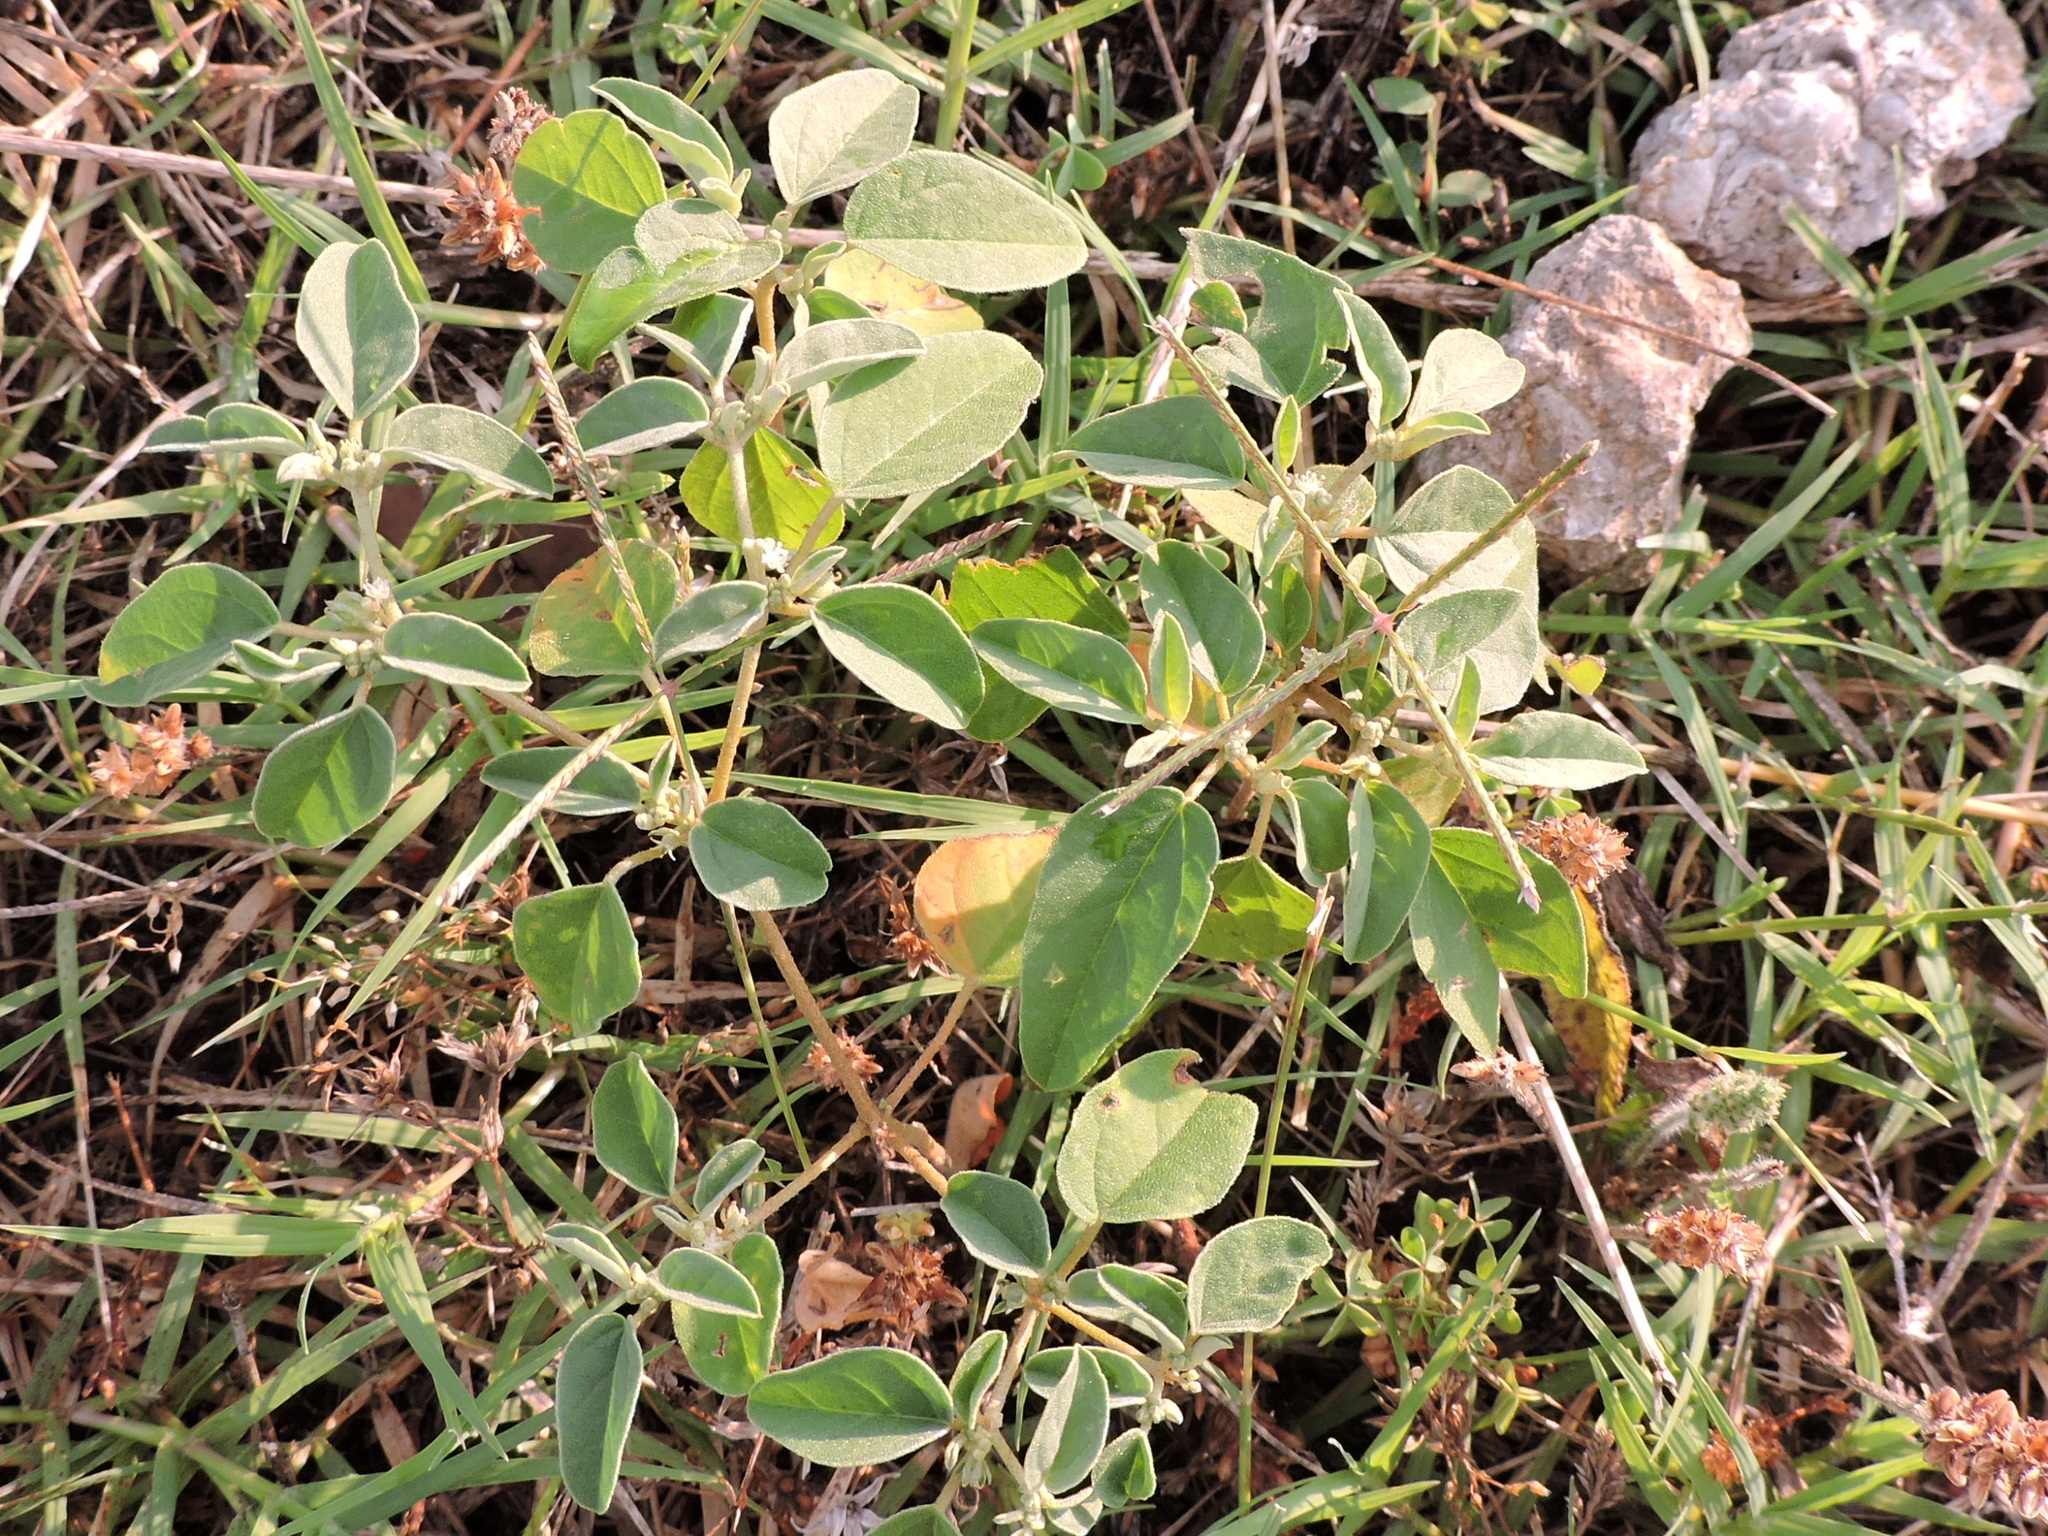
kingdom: Plantae
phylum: Tracheophyta
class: Magnoliopsida
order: Malpighiales
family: Euphorbiaceae
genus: Croton
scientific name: Croton monanthogynus
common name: One-seed croton
